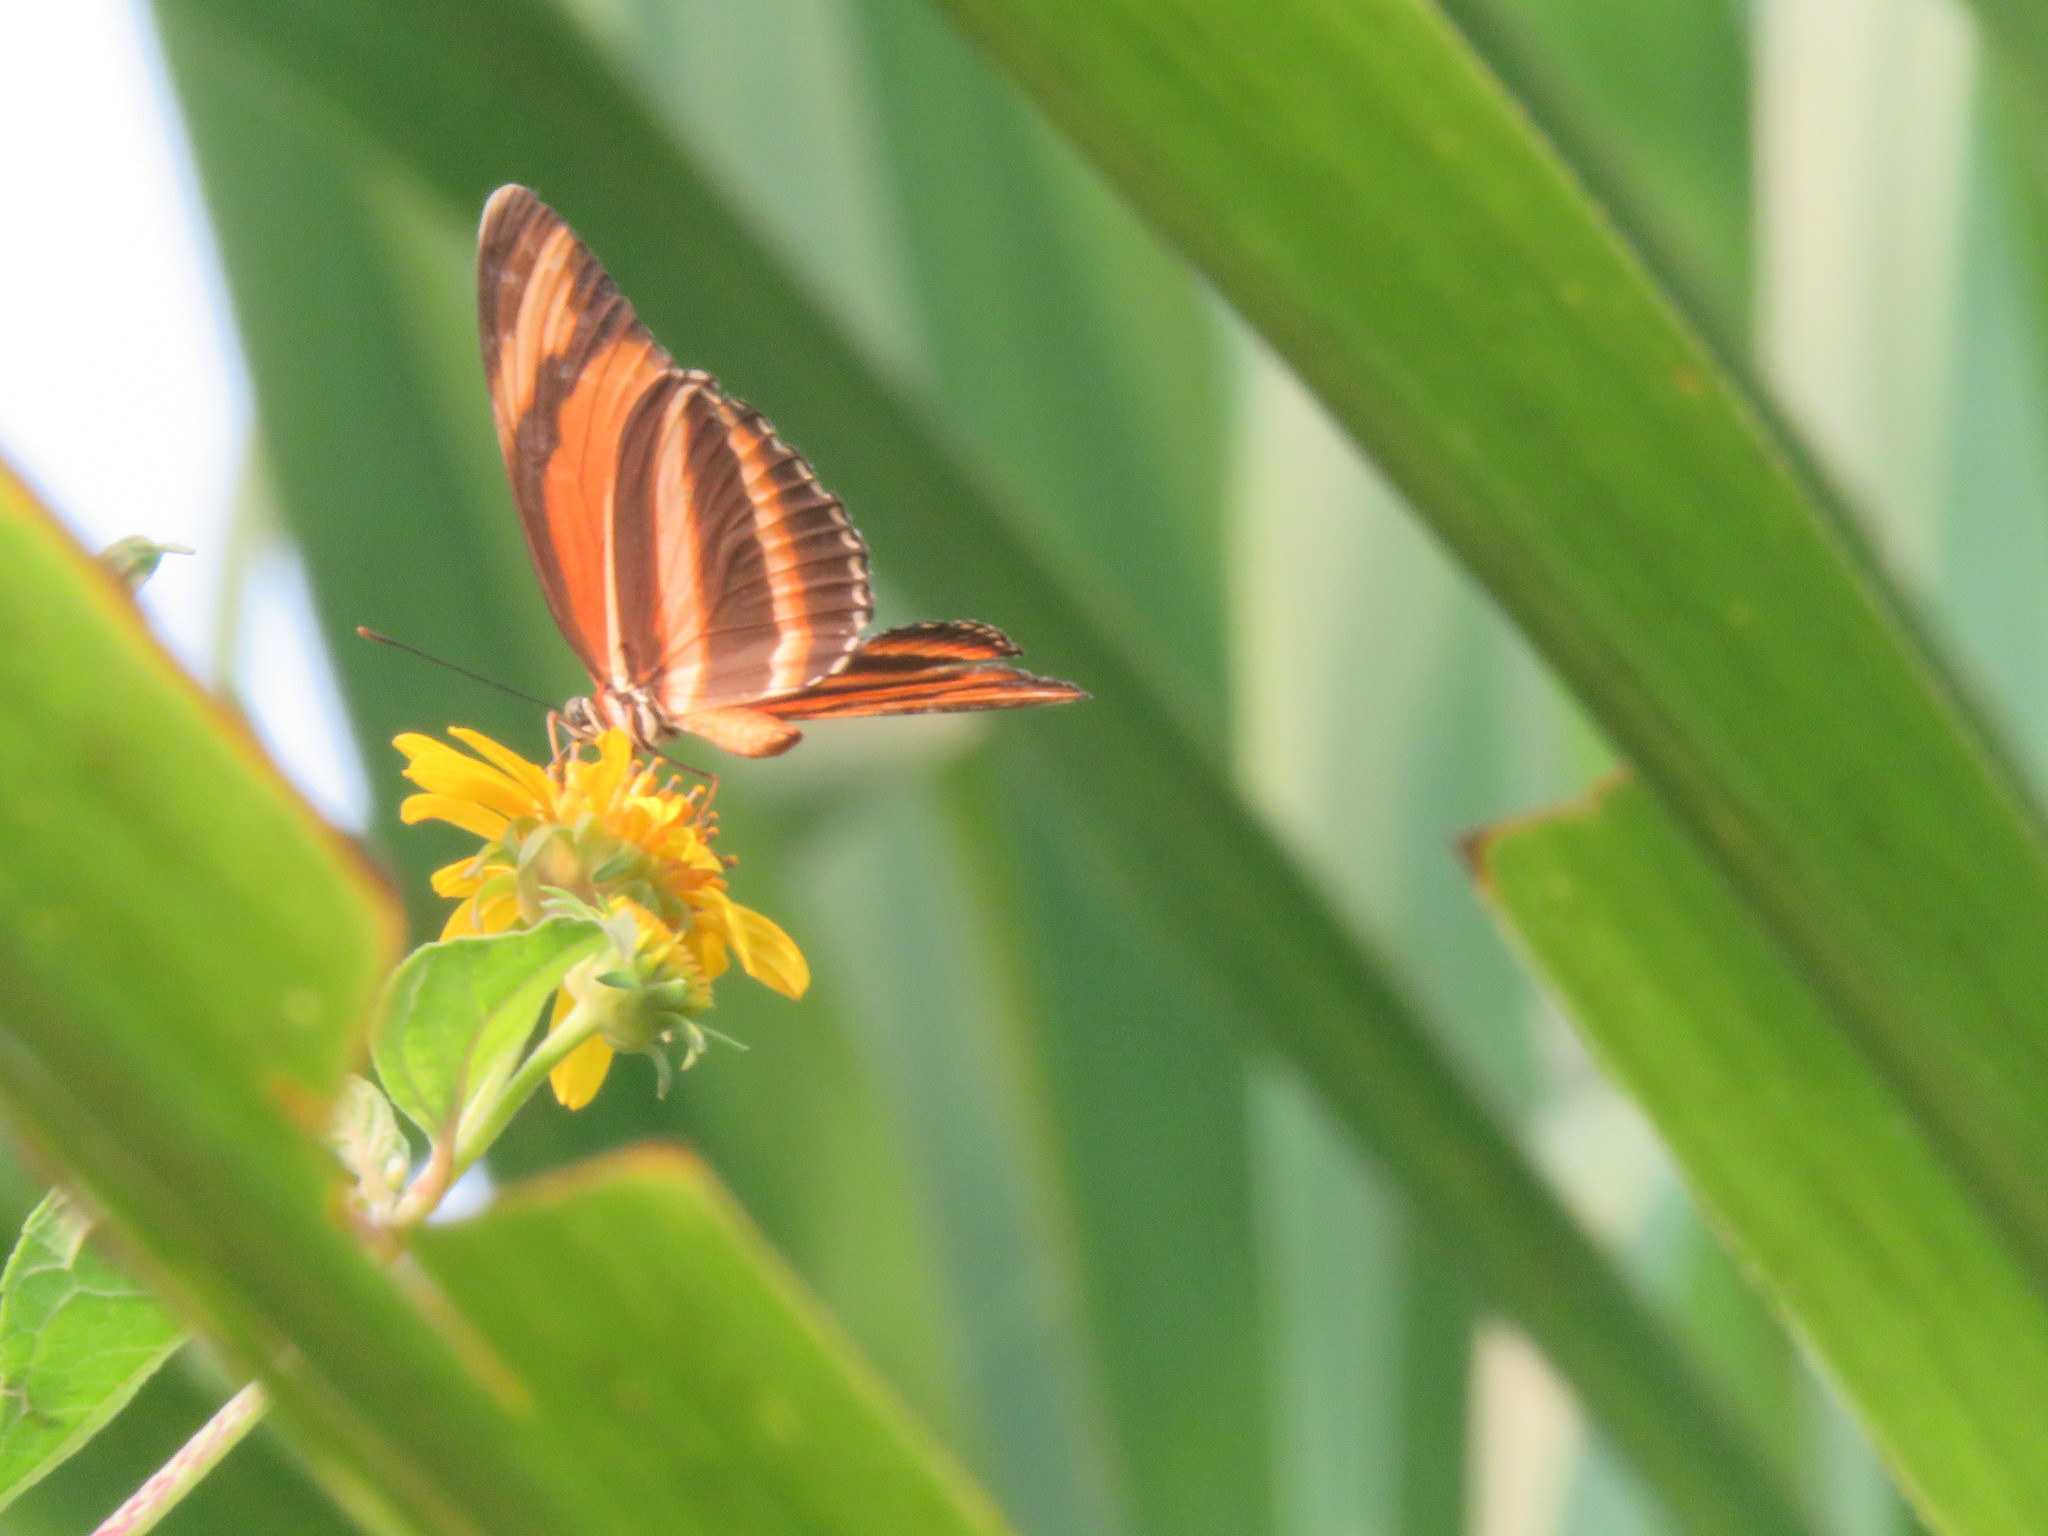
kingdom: Animalia
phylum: Arthropoda
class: Insecta
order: Lepidoptera
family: Nymphalidae
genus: Dryadula
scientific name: Dryadula phaetusa
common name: Banded orange heliconian
